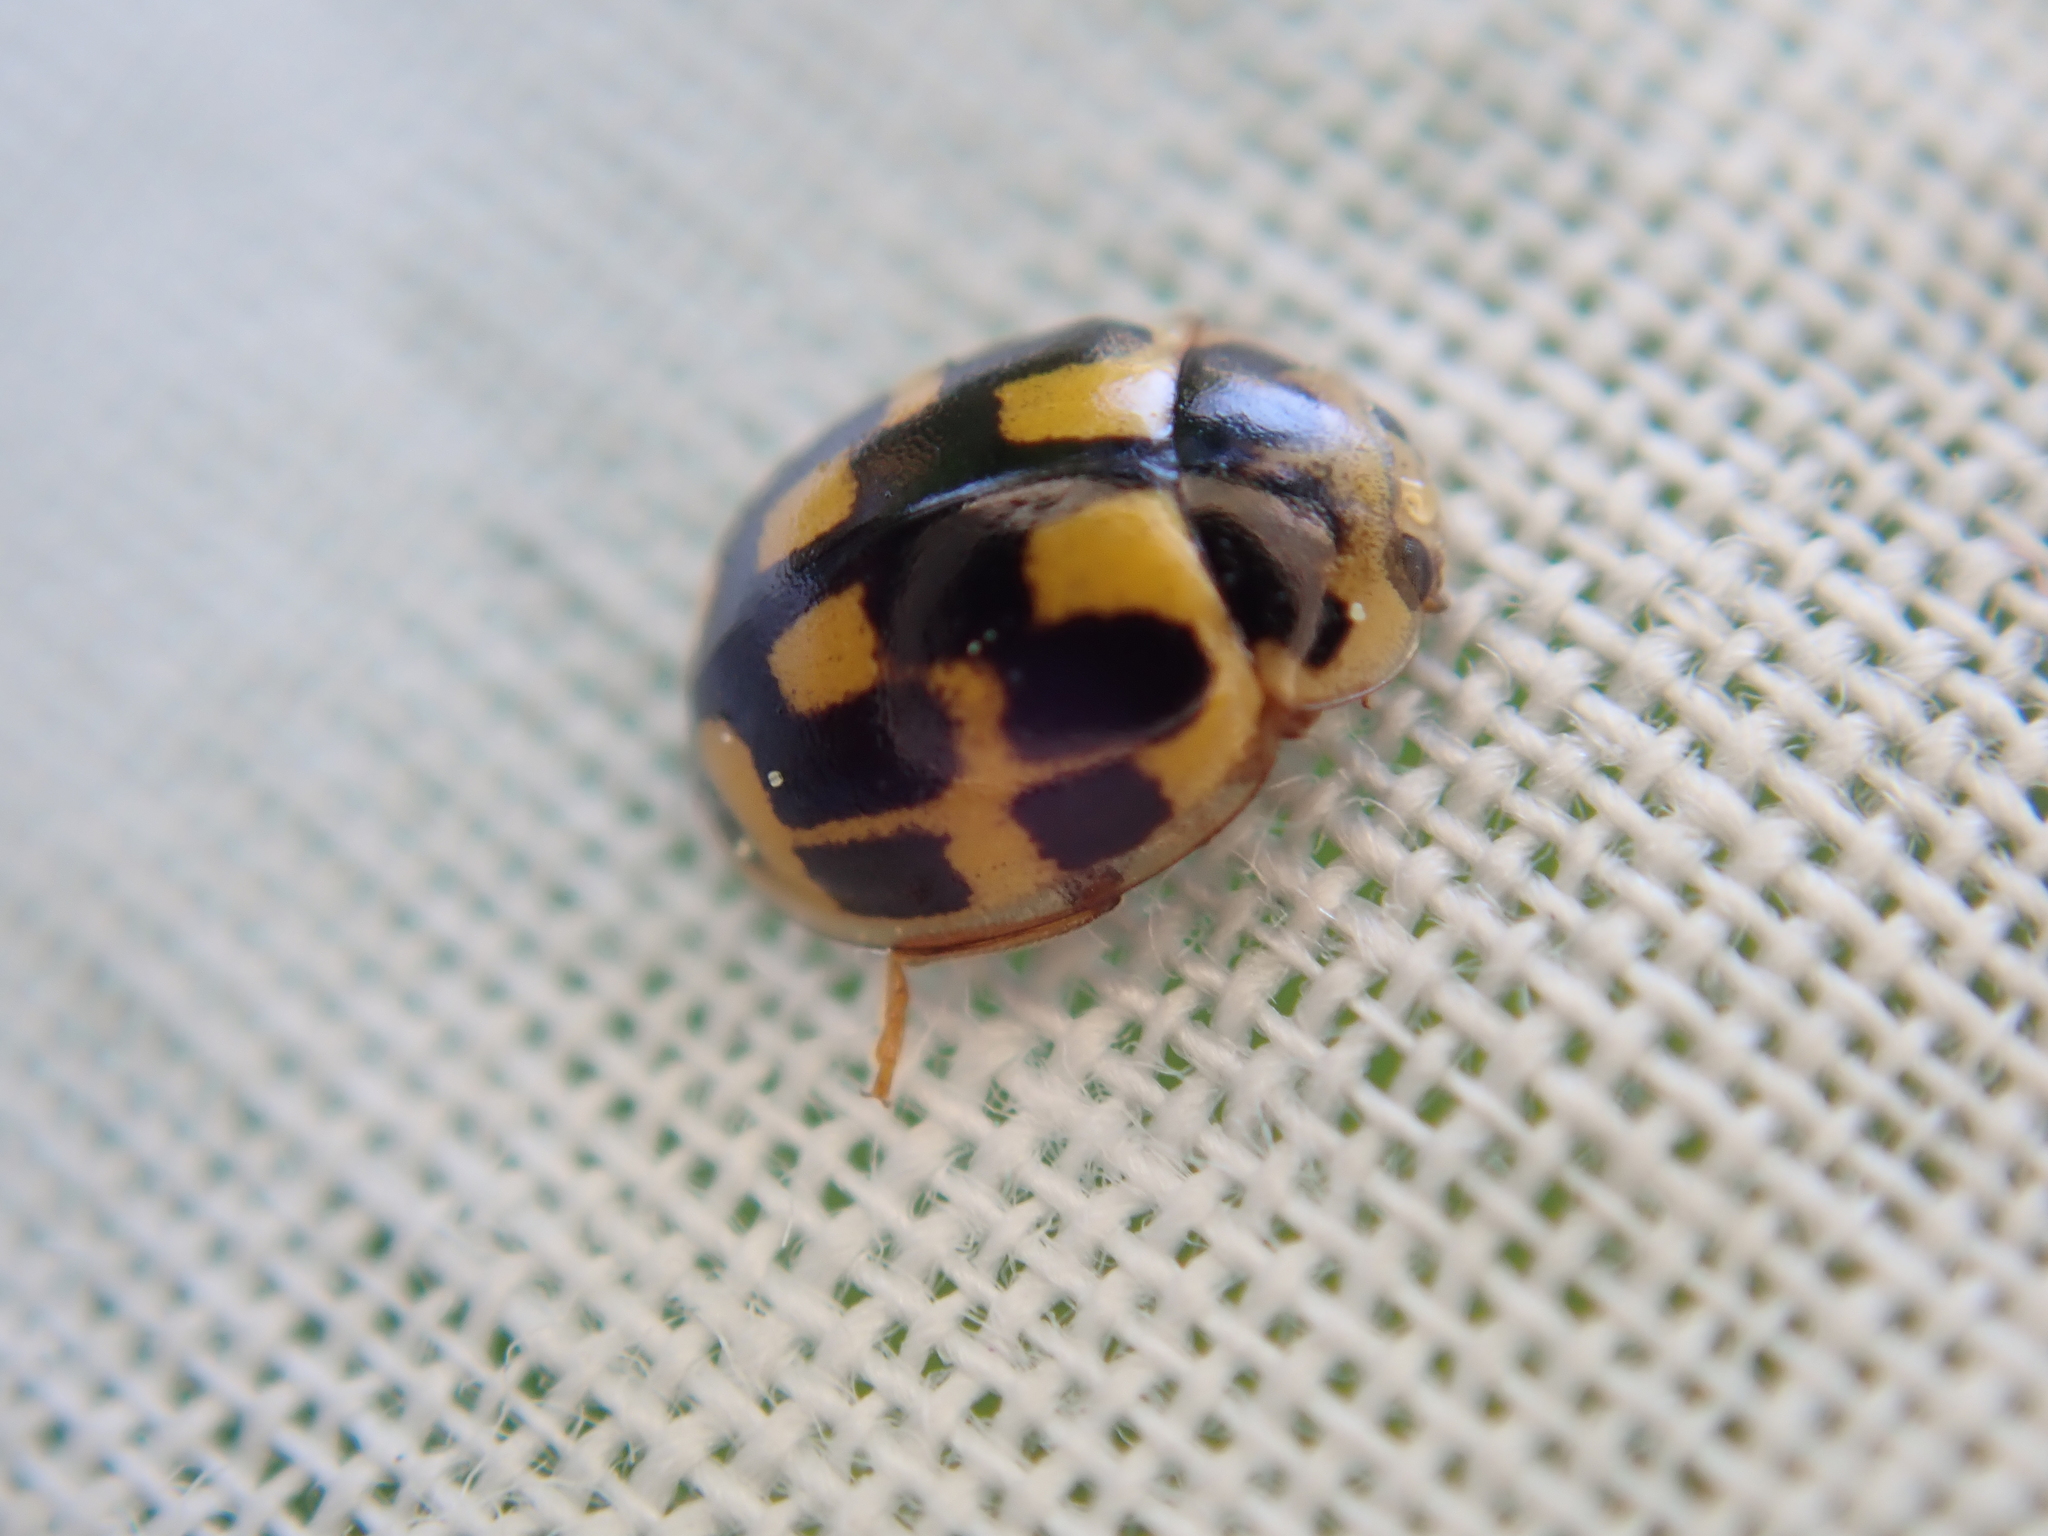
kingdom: Animalia
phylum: Arthropoda
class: Insecta
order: Coleoptera
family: Coccinellidae
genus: Propylaea
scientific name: Propylaea quatuordecimpunctata
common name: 14-spotted ladybird beetle
